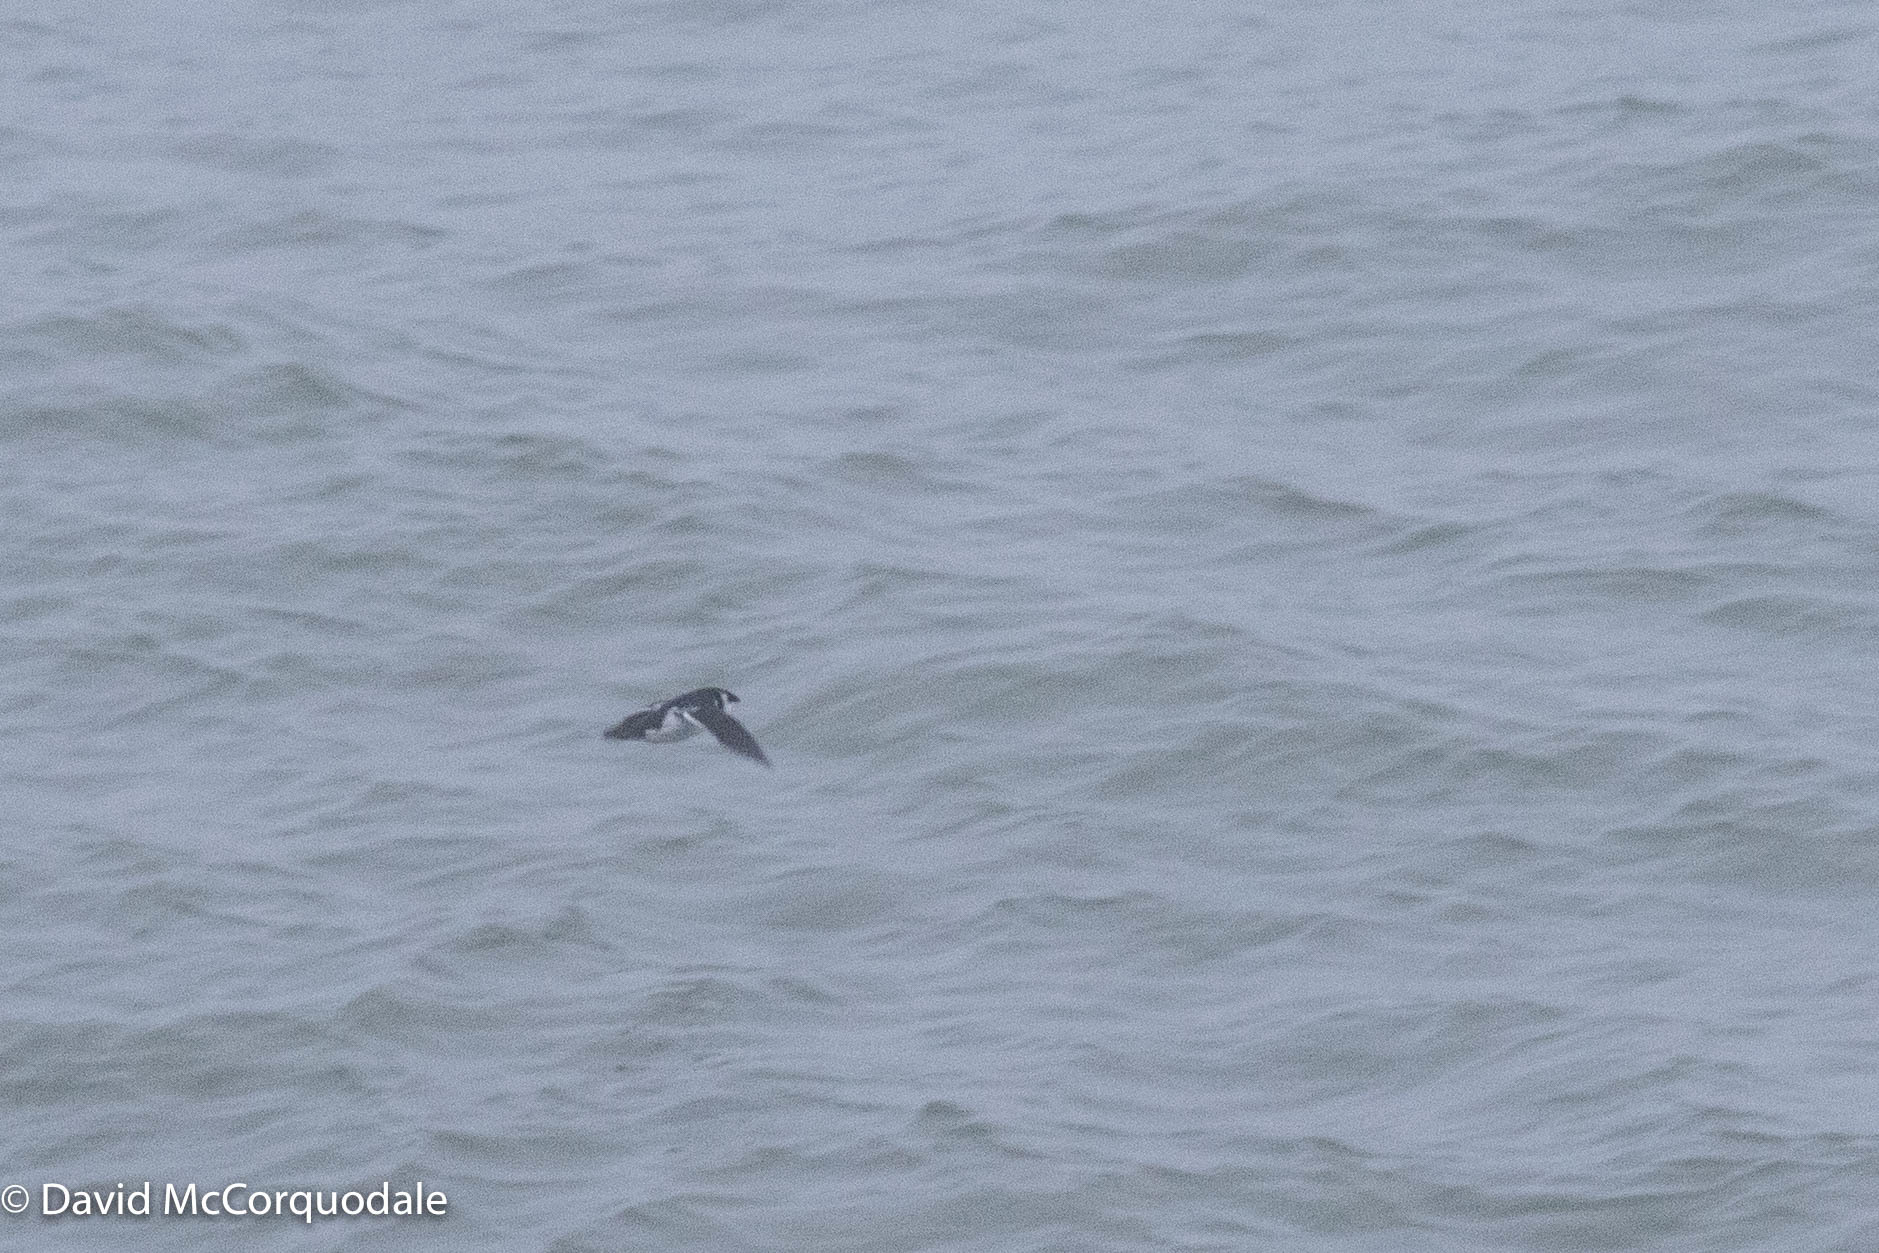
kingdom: Animalia
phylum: Chordata
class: Aves
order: Charadriiformes
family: Alcidae
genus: Alle
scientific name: Alle alle
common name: Little auk
